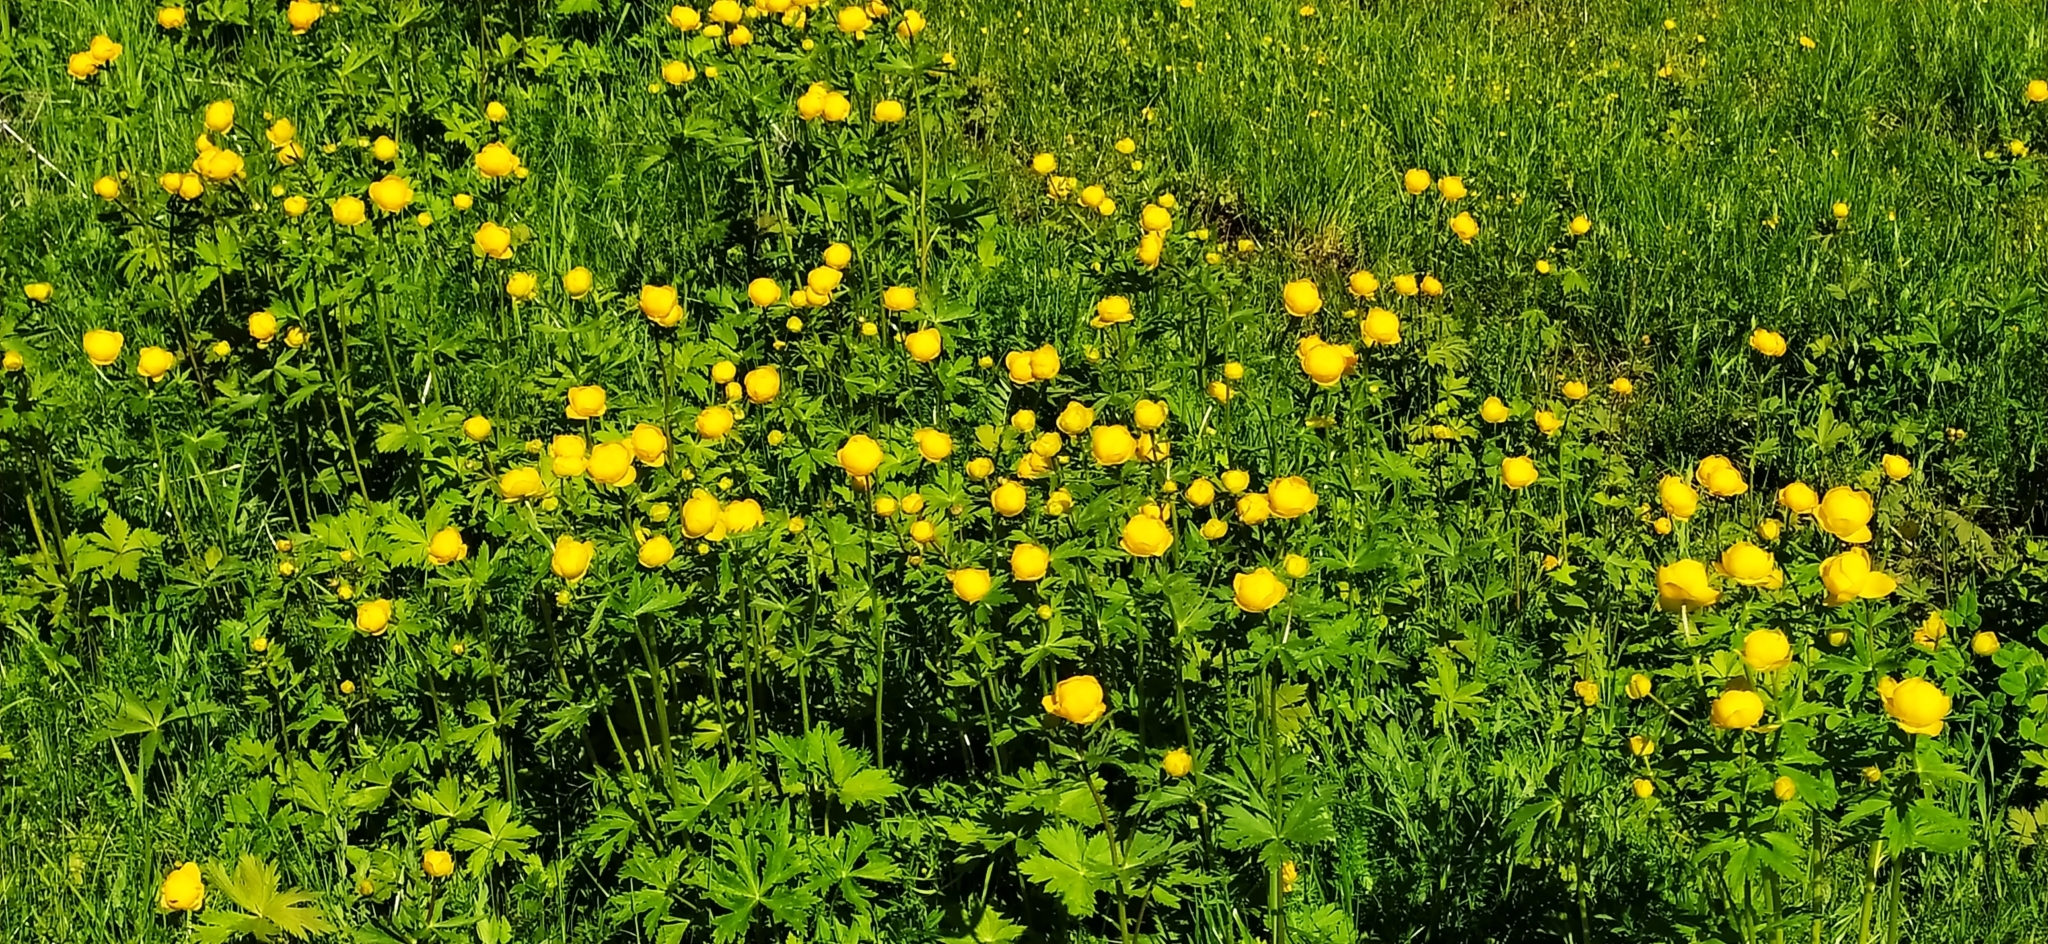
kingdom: Plantae
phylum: Tracheophyta
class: Magnoliopsida
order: Ranunculales
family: Ranunculaceae
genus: Trollius
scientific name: Trollius europaeus
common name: European globeflower
